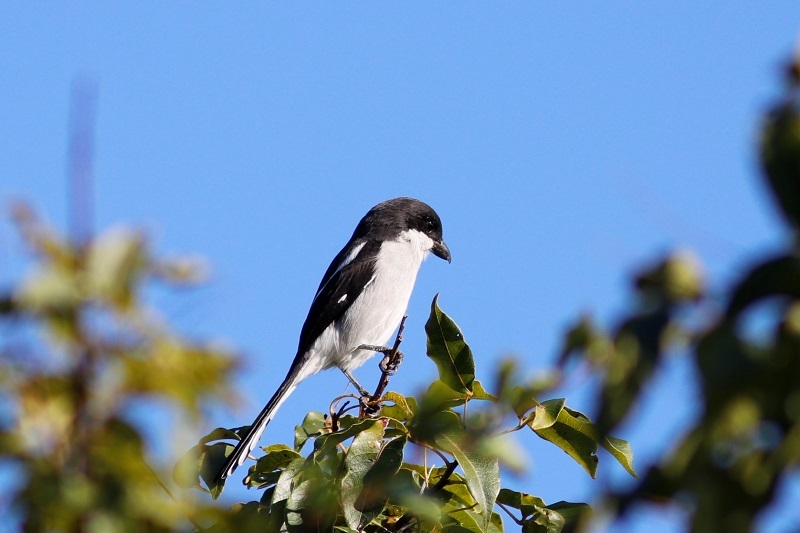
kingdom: Animalia
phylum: Chordata
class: Aves
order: Passeriformes
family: Laniidae
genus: Lanius
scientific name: Lanius collaris
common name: Southern fiscal
